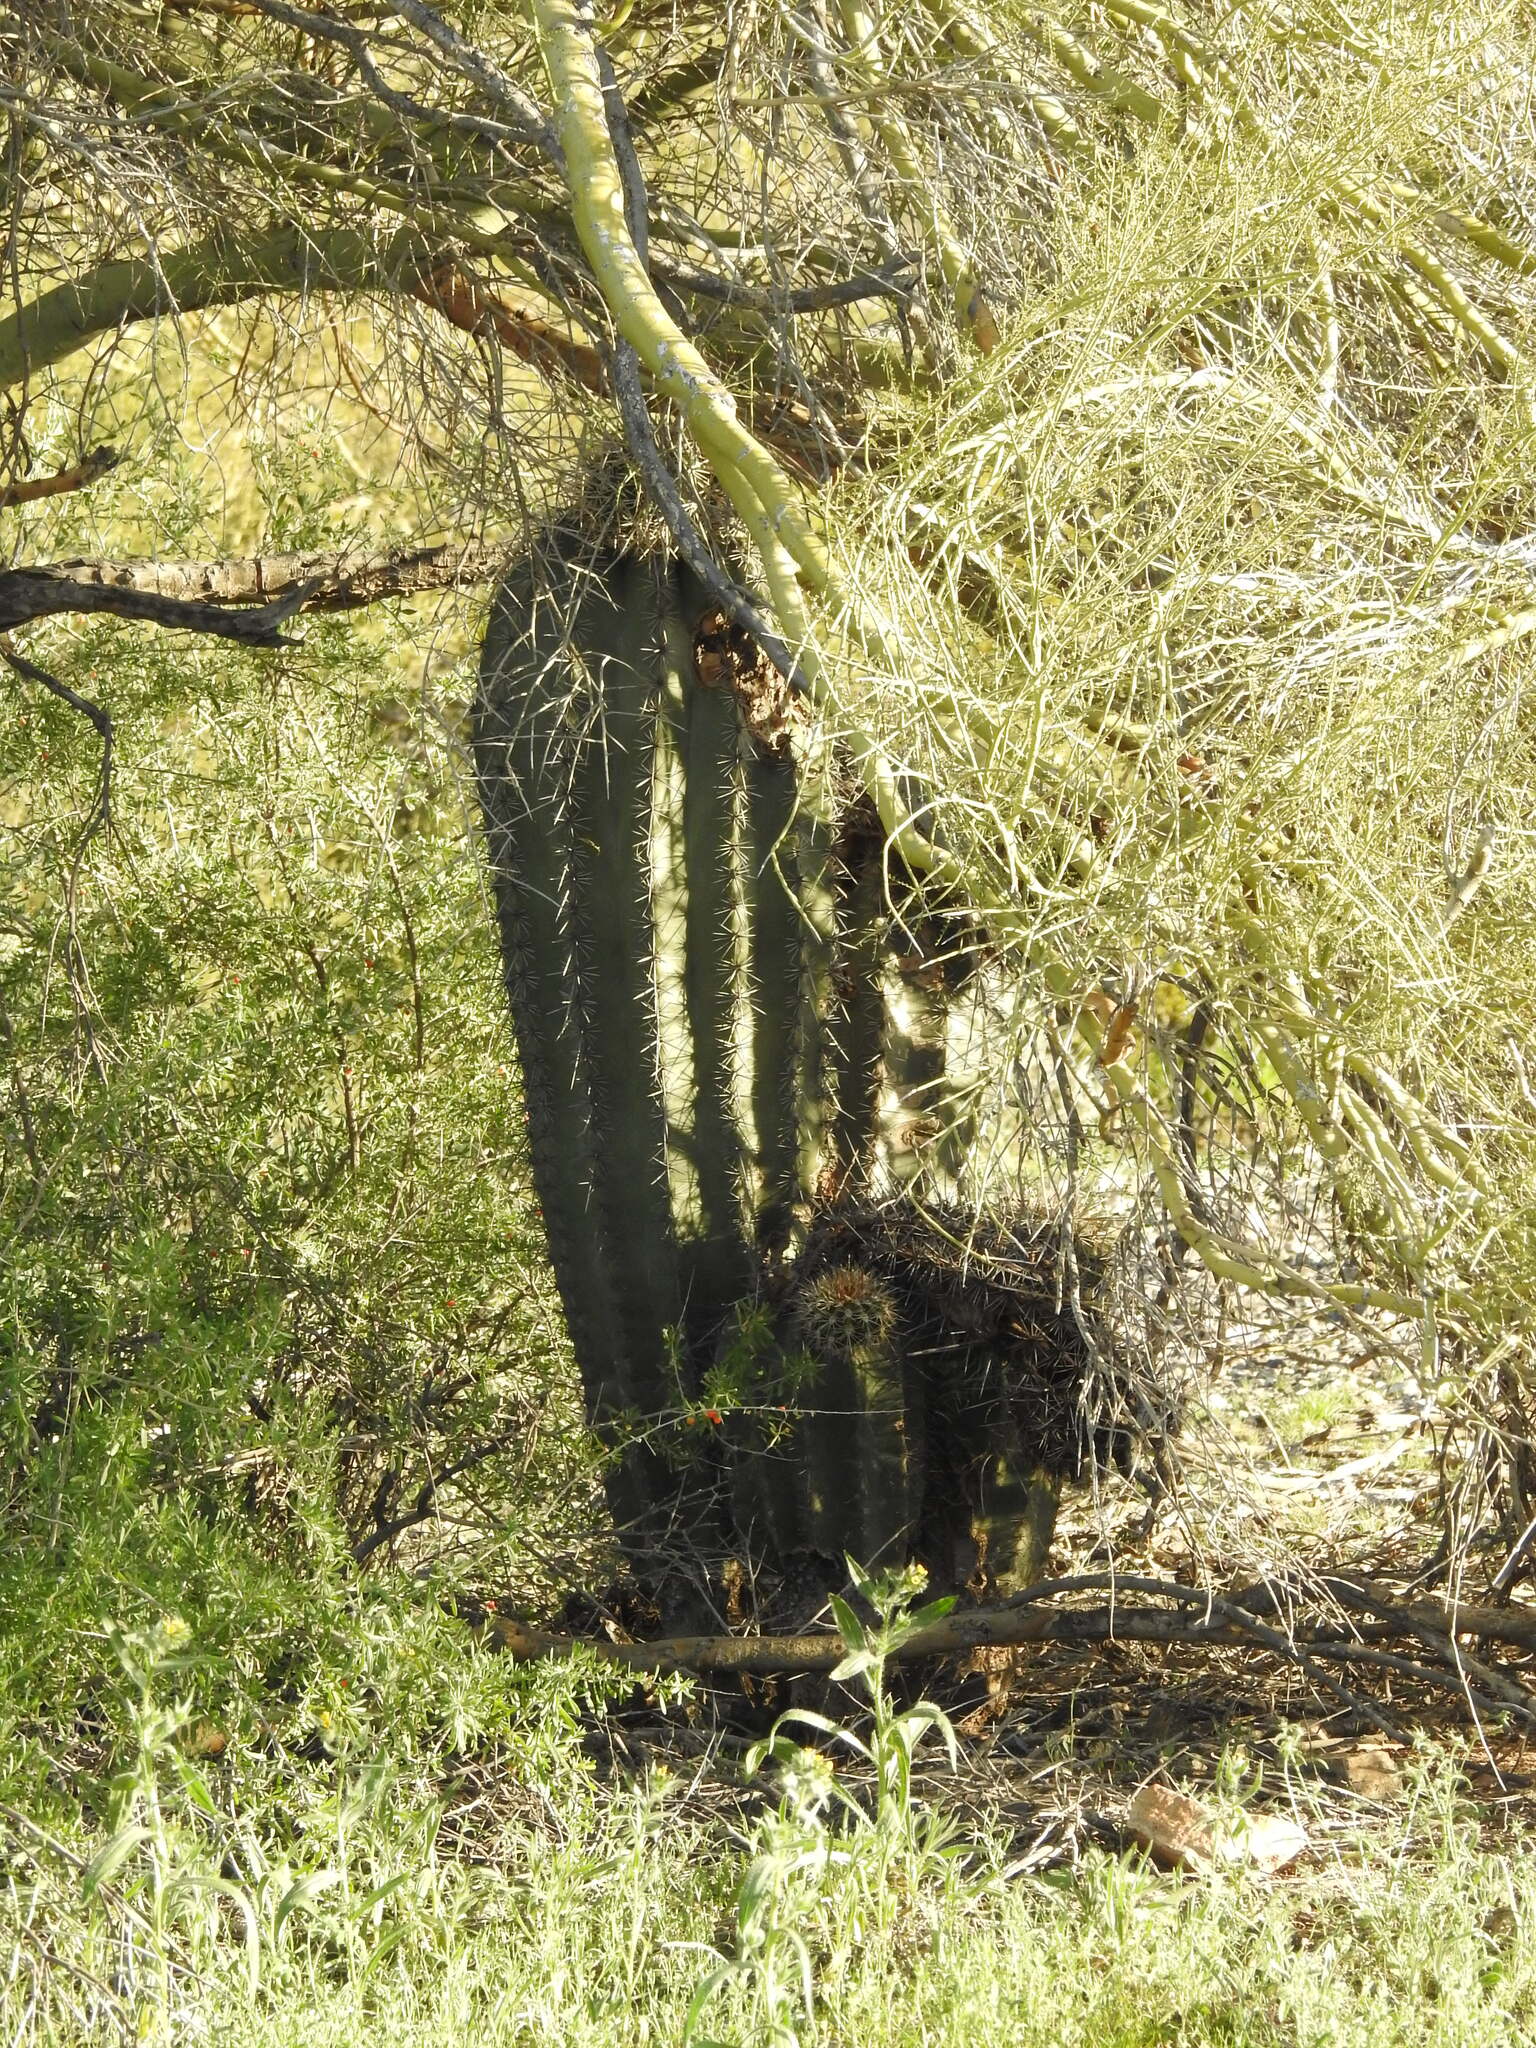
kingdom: Plantae
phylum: Tracheophyta
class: Magnoliopsida
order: Caryophyllales
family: Cactaceae
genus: Carnegiea
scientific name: Carnegiea gigantea
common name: Saguaro
